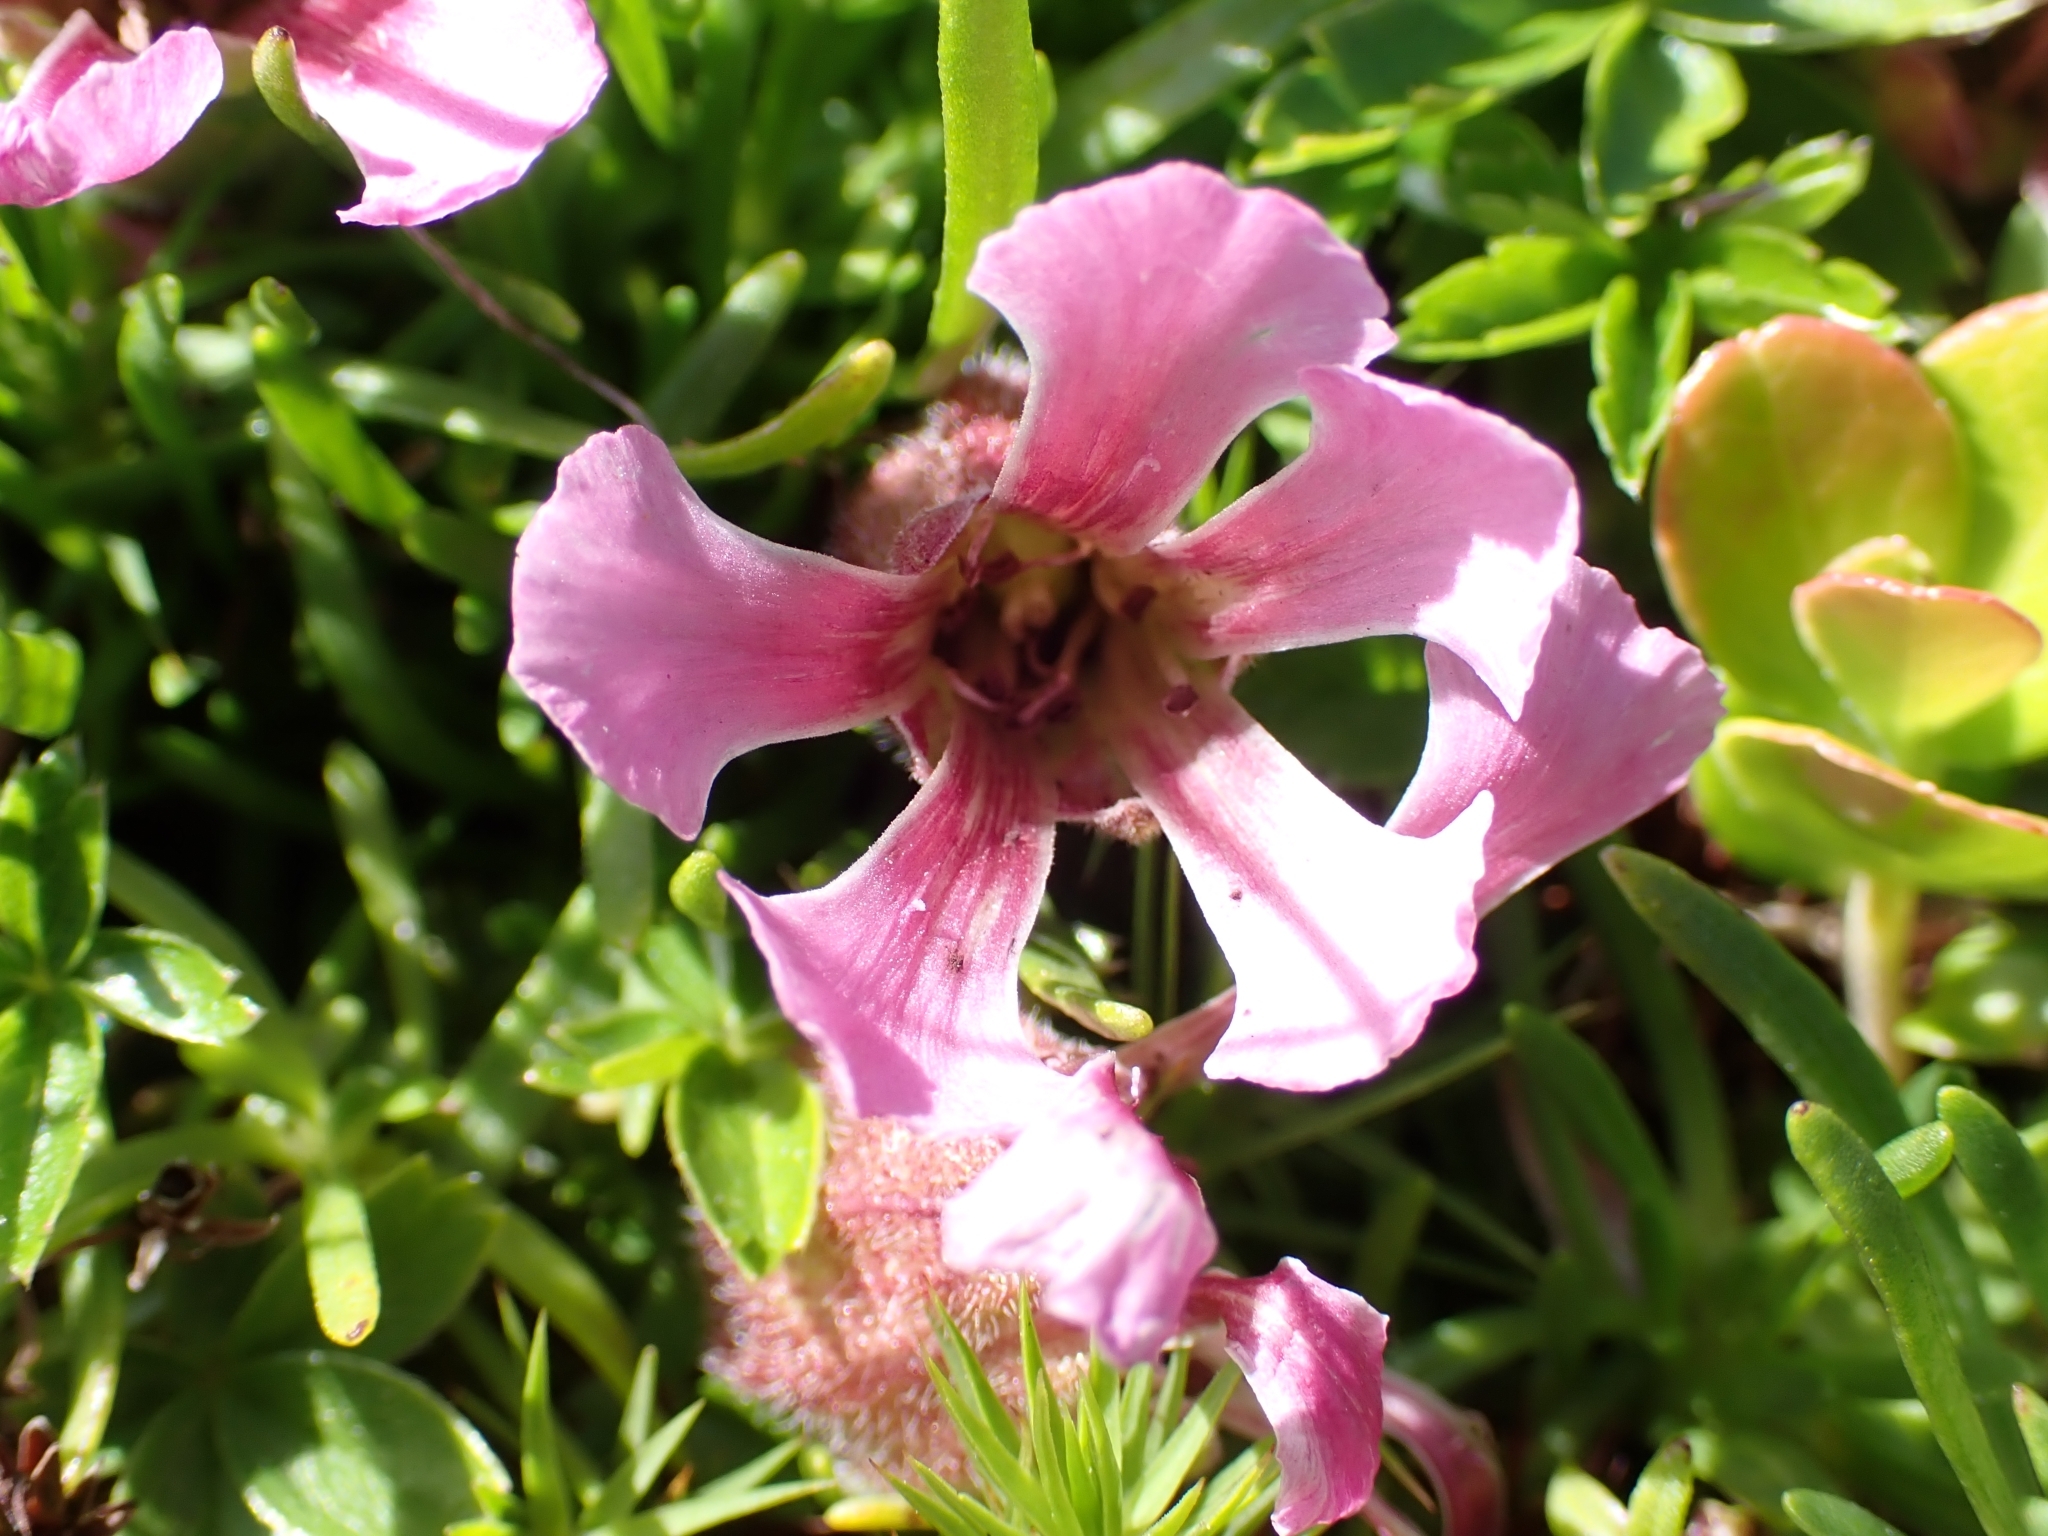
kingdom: Plantae
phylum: Tracheophyta
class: Magnoliopsida
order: Caryophyllales
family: Caryophyllaceae
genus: Saponaria
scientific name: Saponaria pumila
